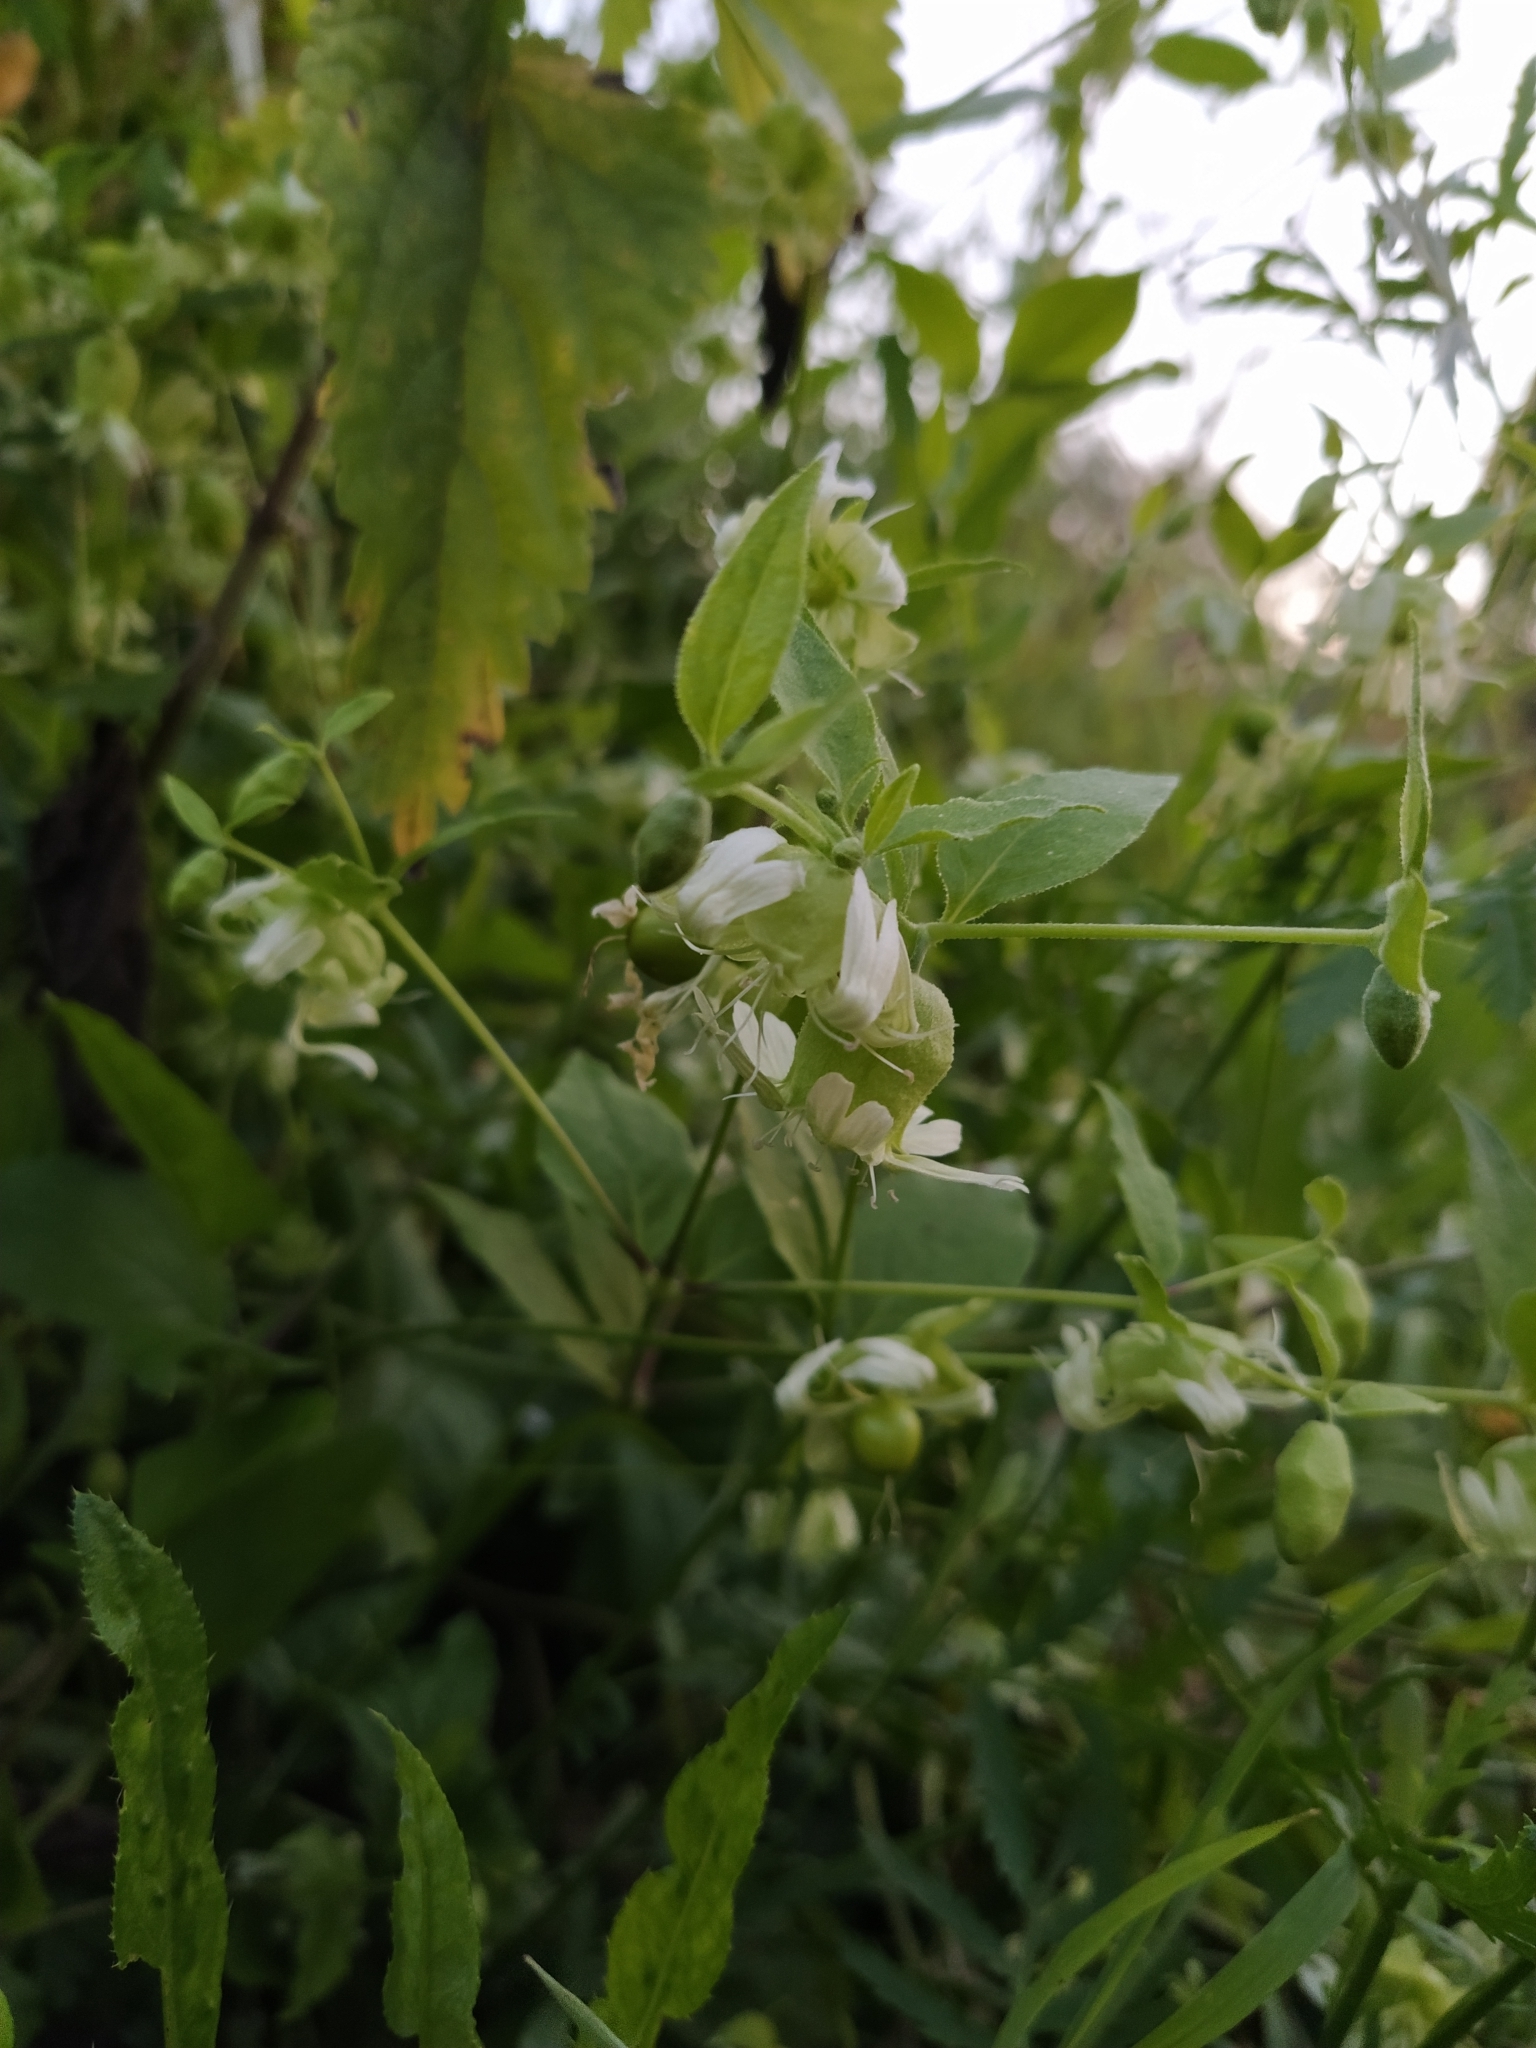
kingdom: Plantae
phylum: Tracheophyta
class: Magnoliopsida
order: Caryophyllales
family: Caryophyllaceae
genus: Silene
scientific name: Silene baccifera
